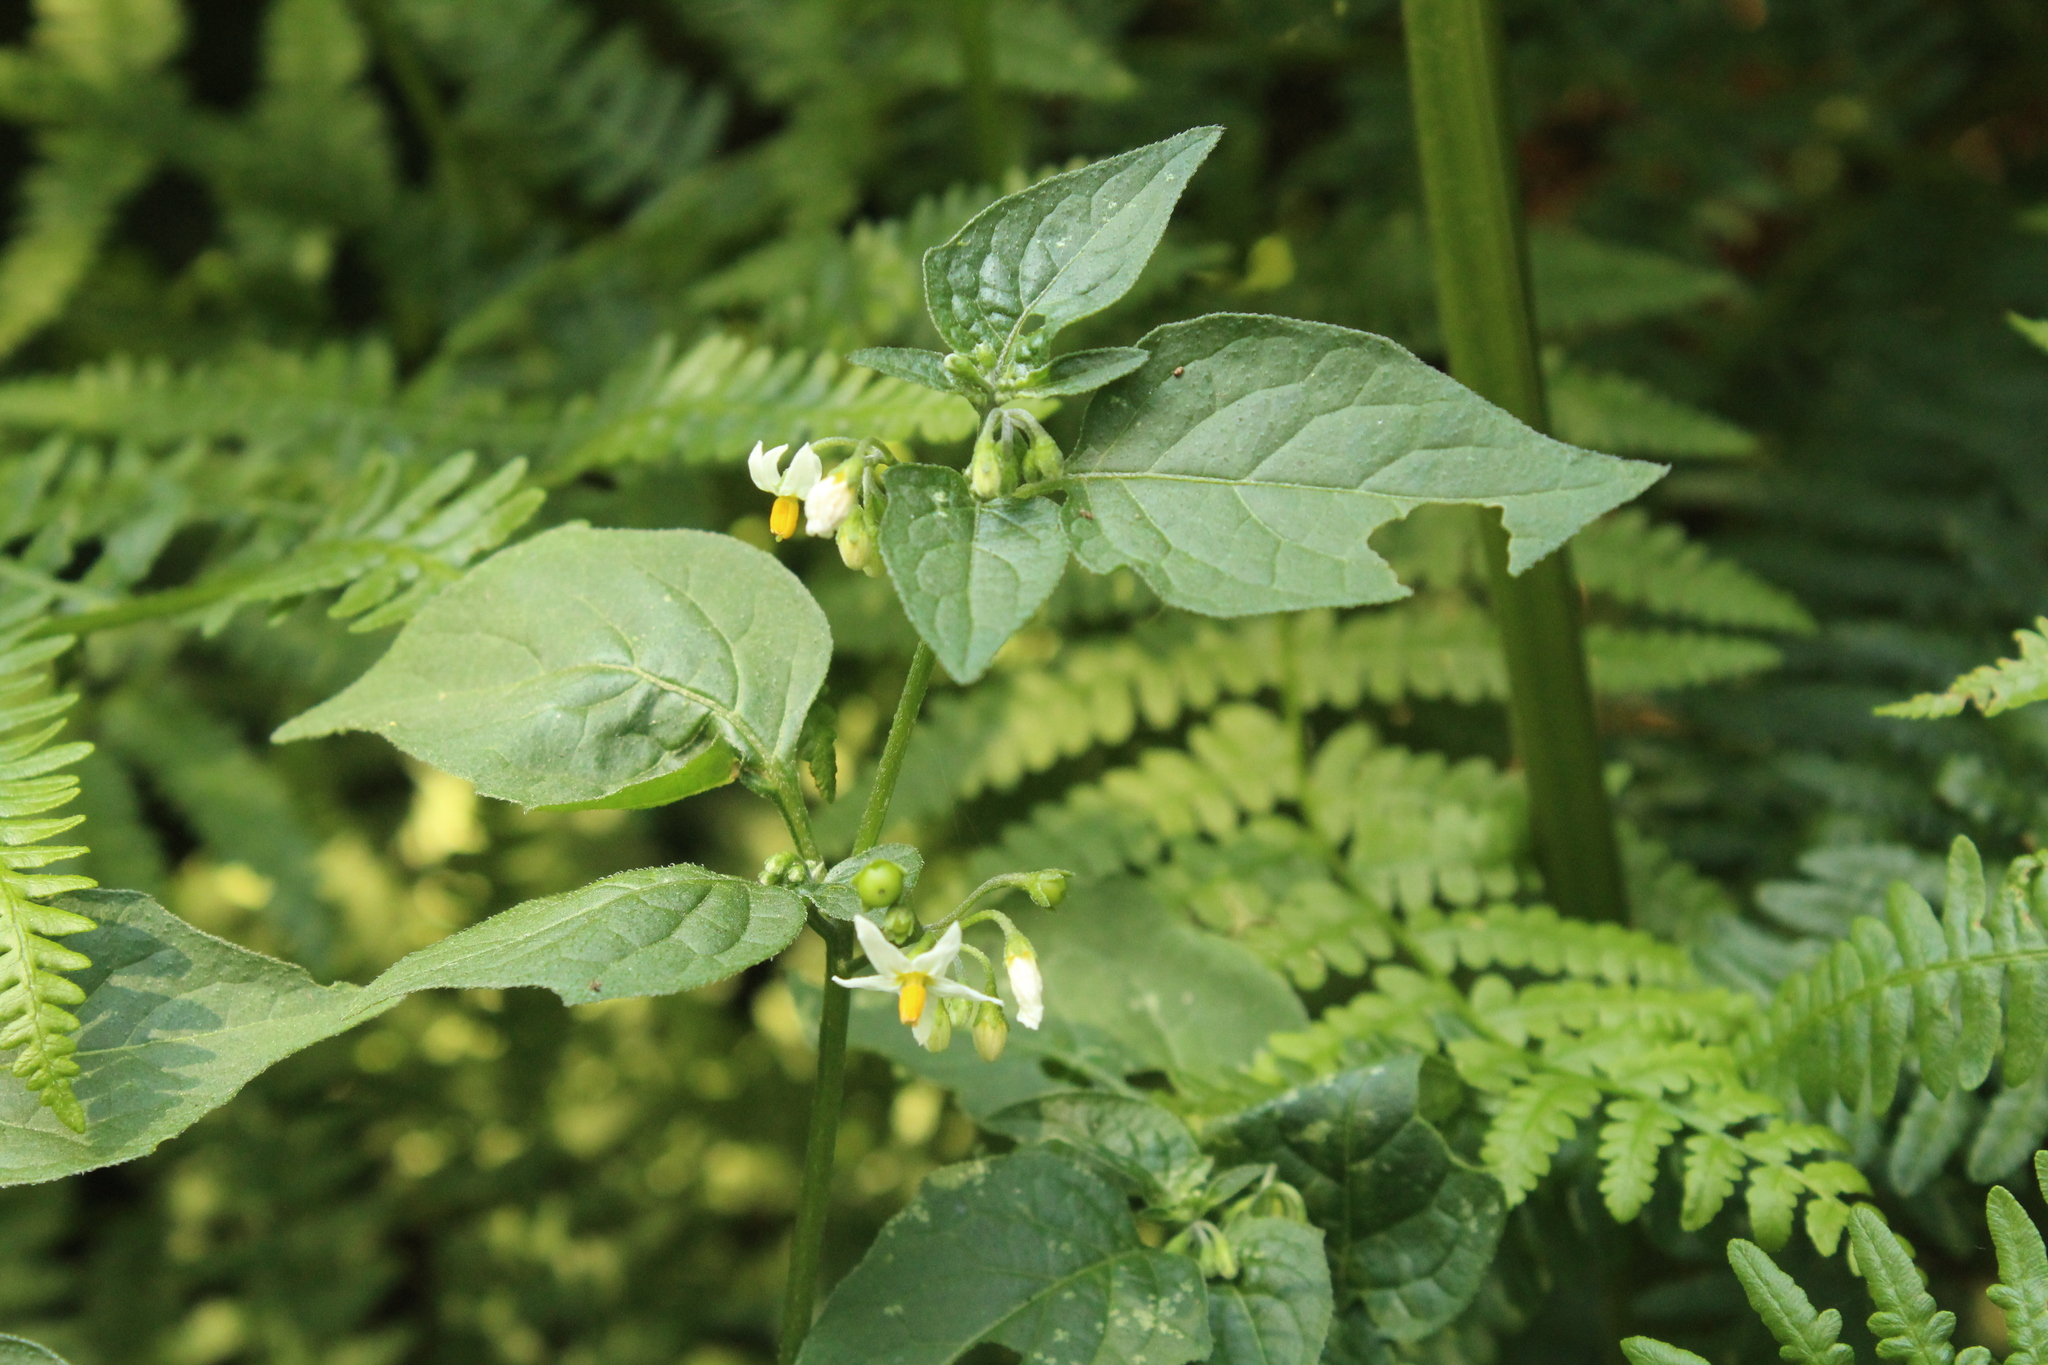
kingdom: Plantae
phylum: Tracheophyta
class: Magnoliopsida
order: Solanales
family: Solanaceae
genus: Solanum
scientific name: Solanum nigrum
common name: Black nightshade
